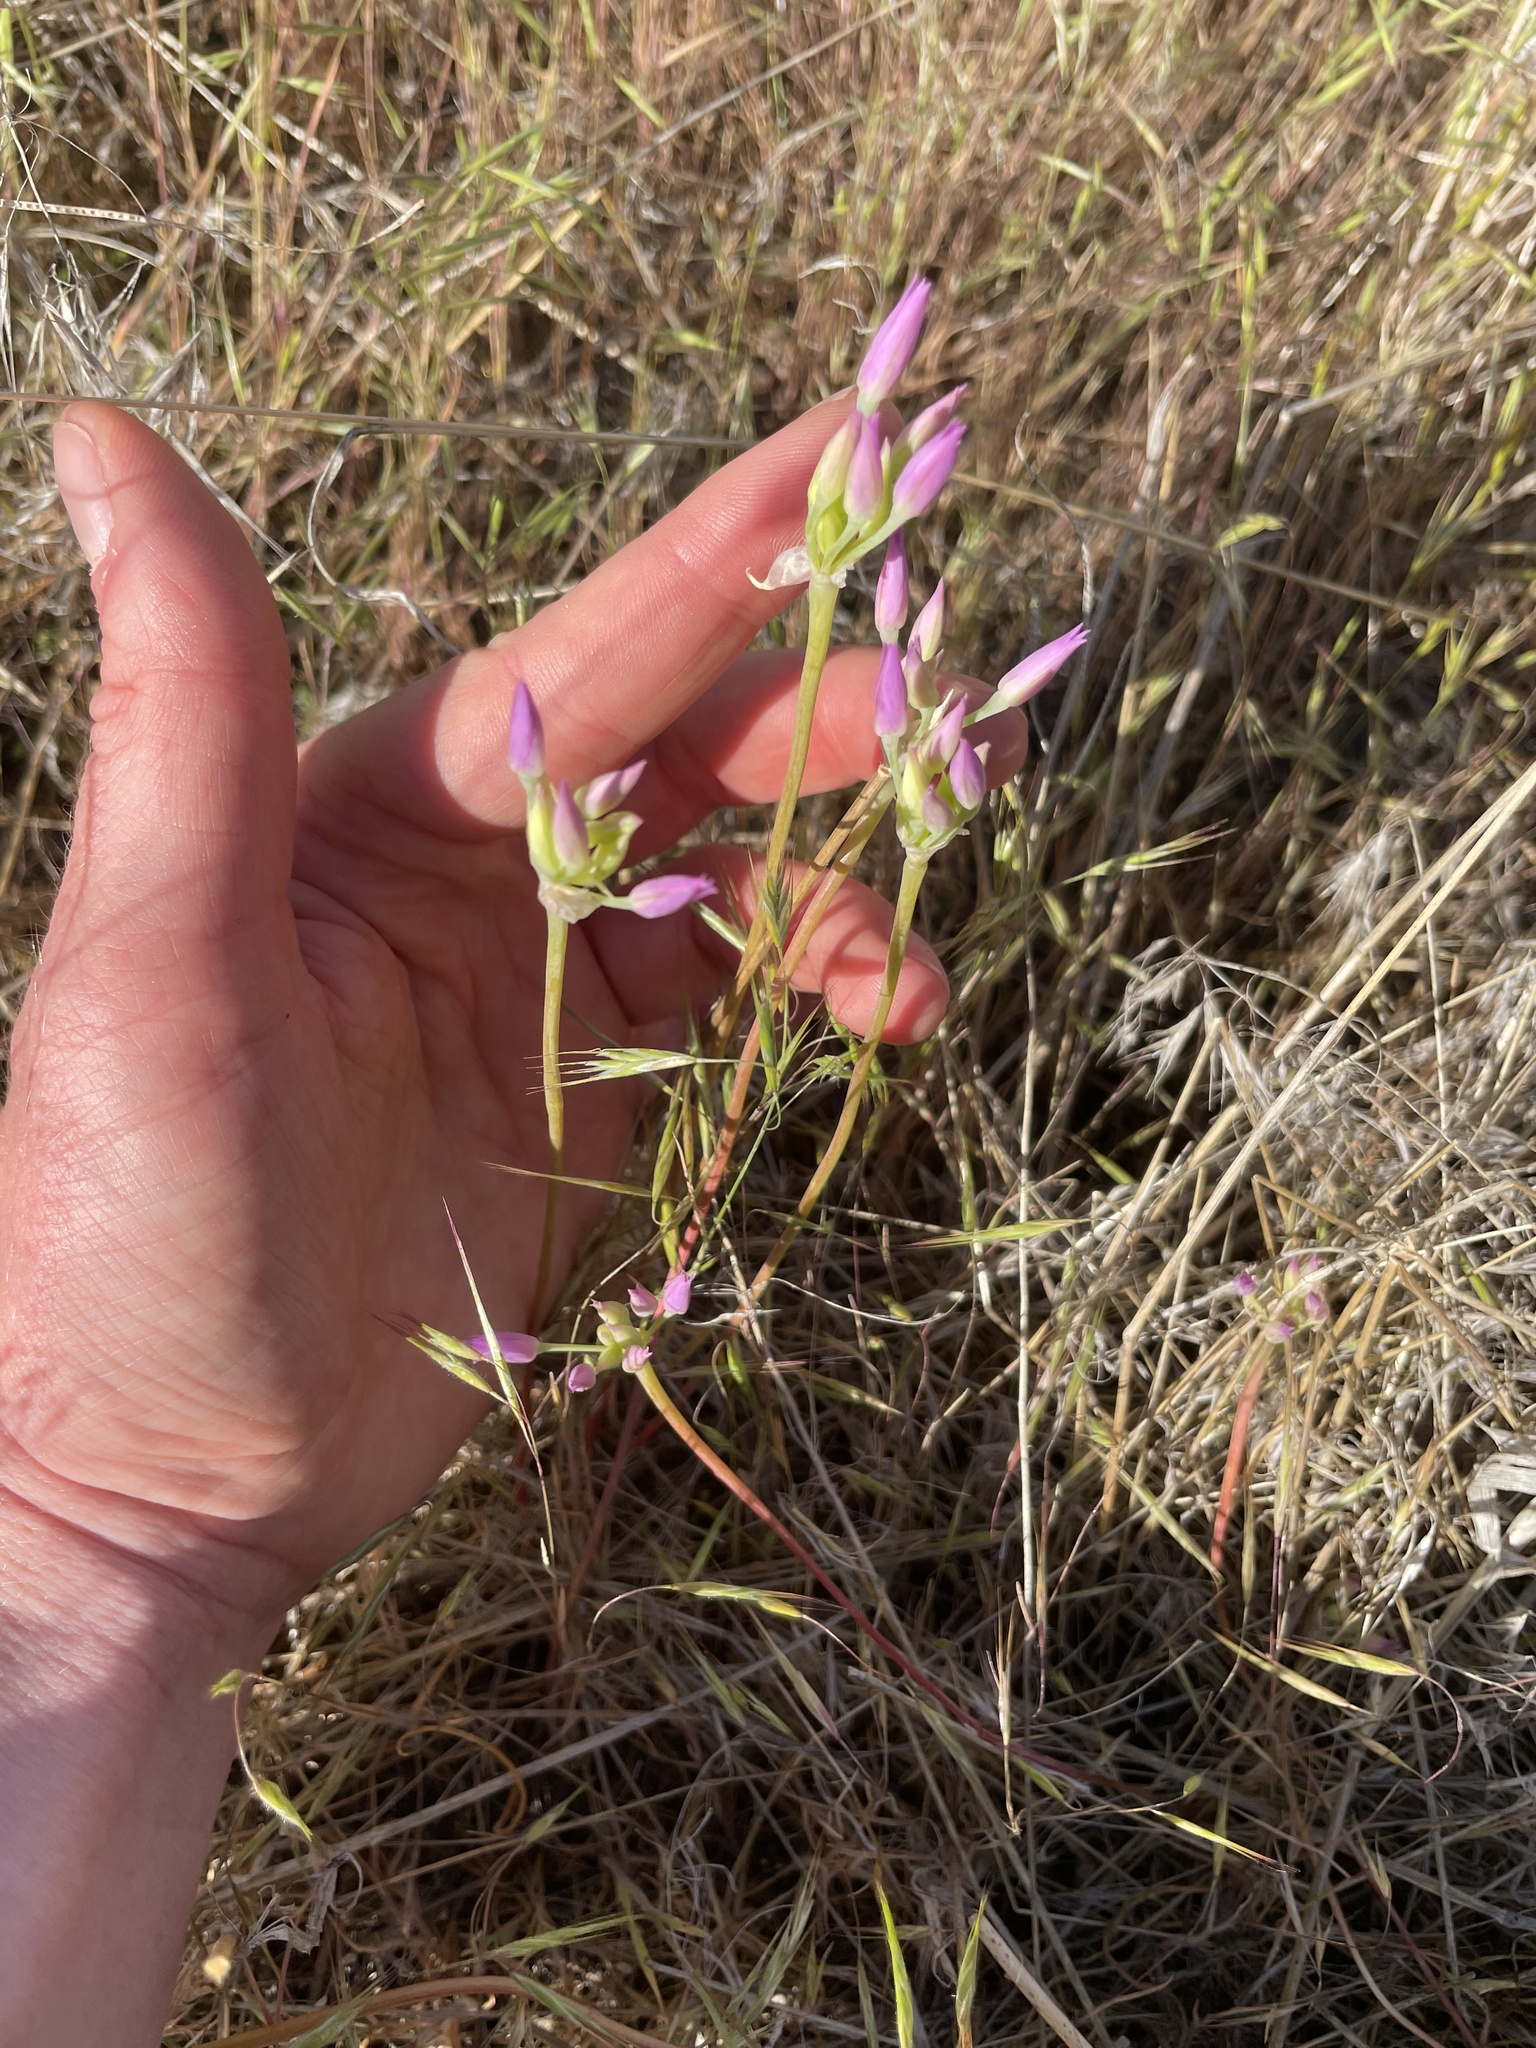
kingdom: Plantae
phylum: Tracheophyta
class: Liliopsida
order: Asparagales
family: Amaryllidaceae
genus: Allium
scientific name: Allium acuminatum
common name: Hooker's onion
